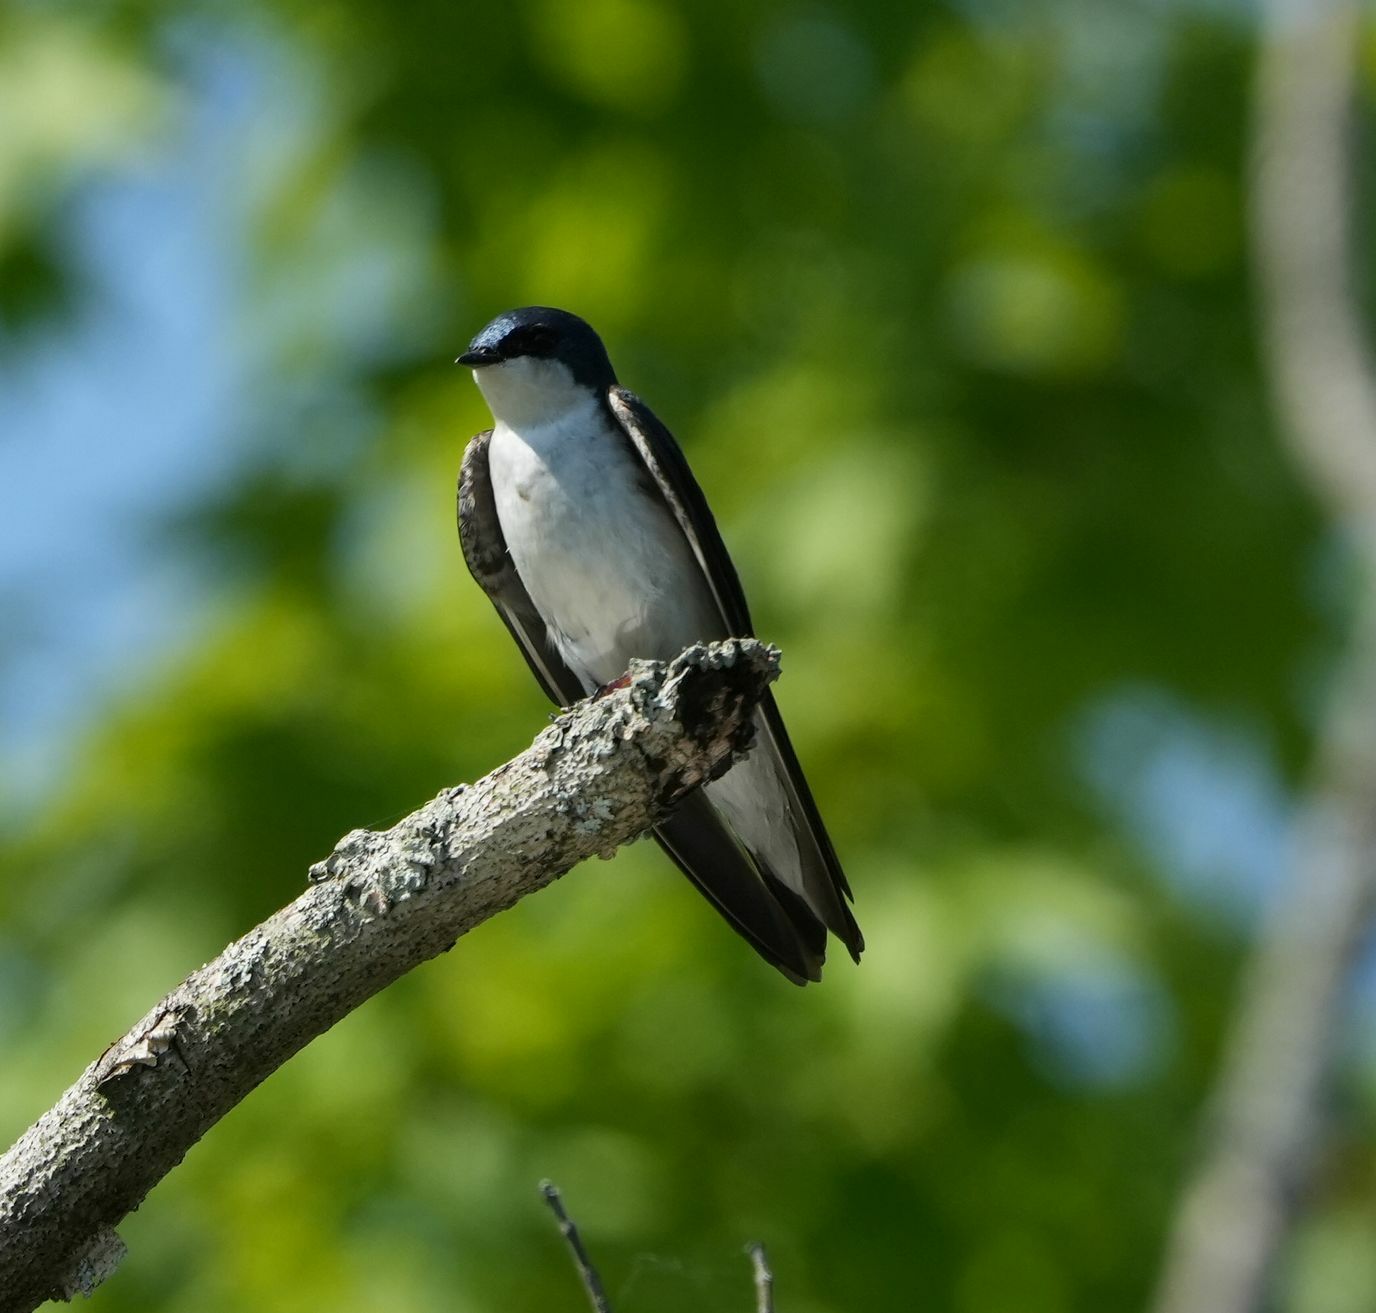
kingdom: Animalia
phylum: Chordata
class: Aves
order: Passeriformes
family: Hirundinidae
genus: Tachycineta
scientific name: Tachycineta bicolor
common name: Tree swallow
